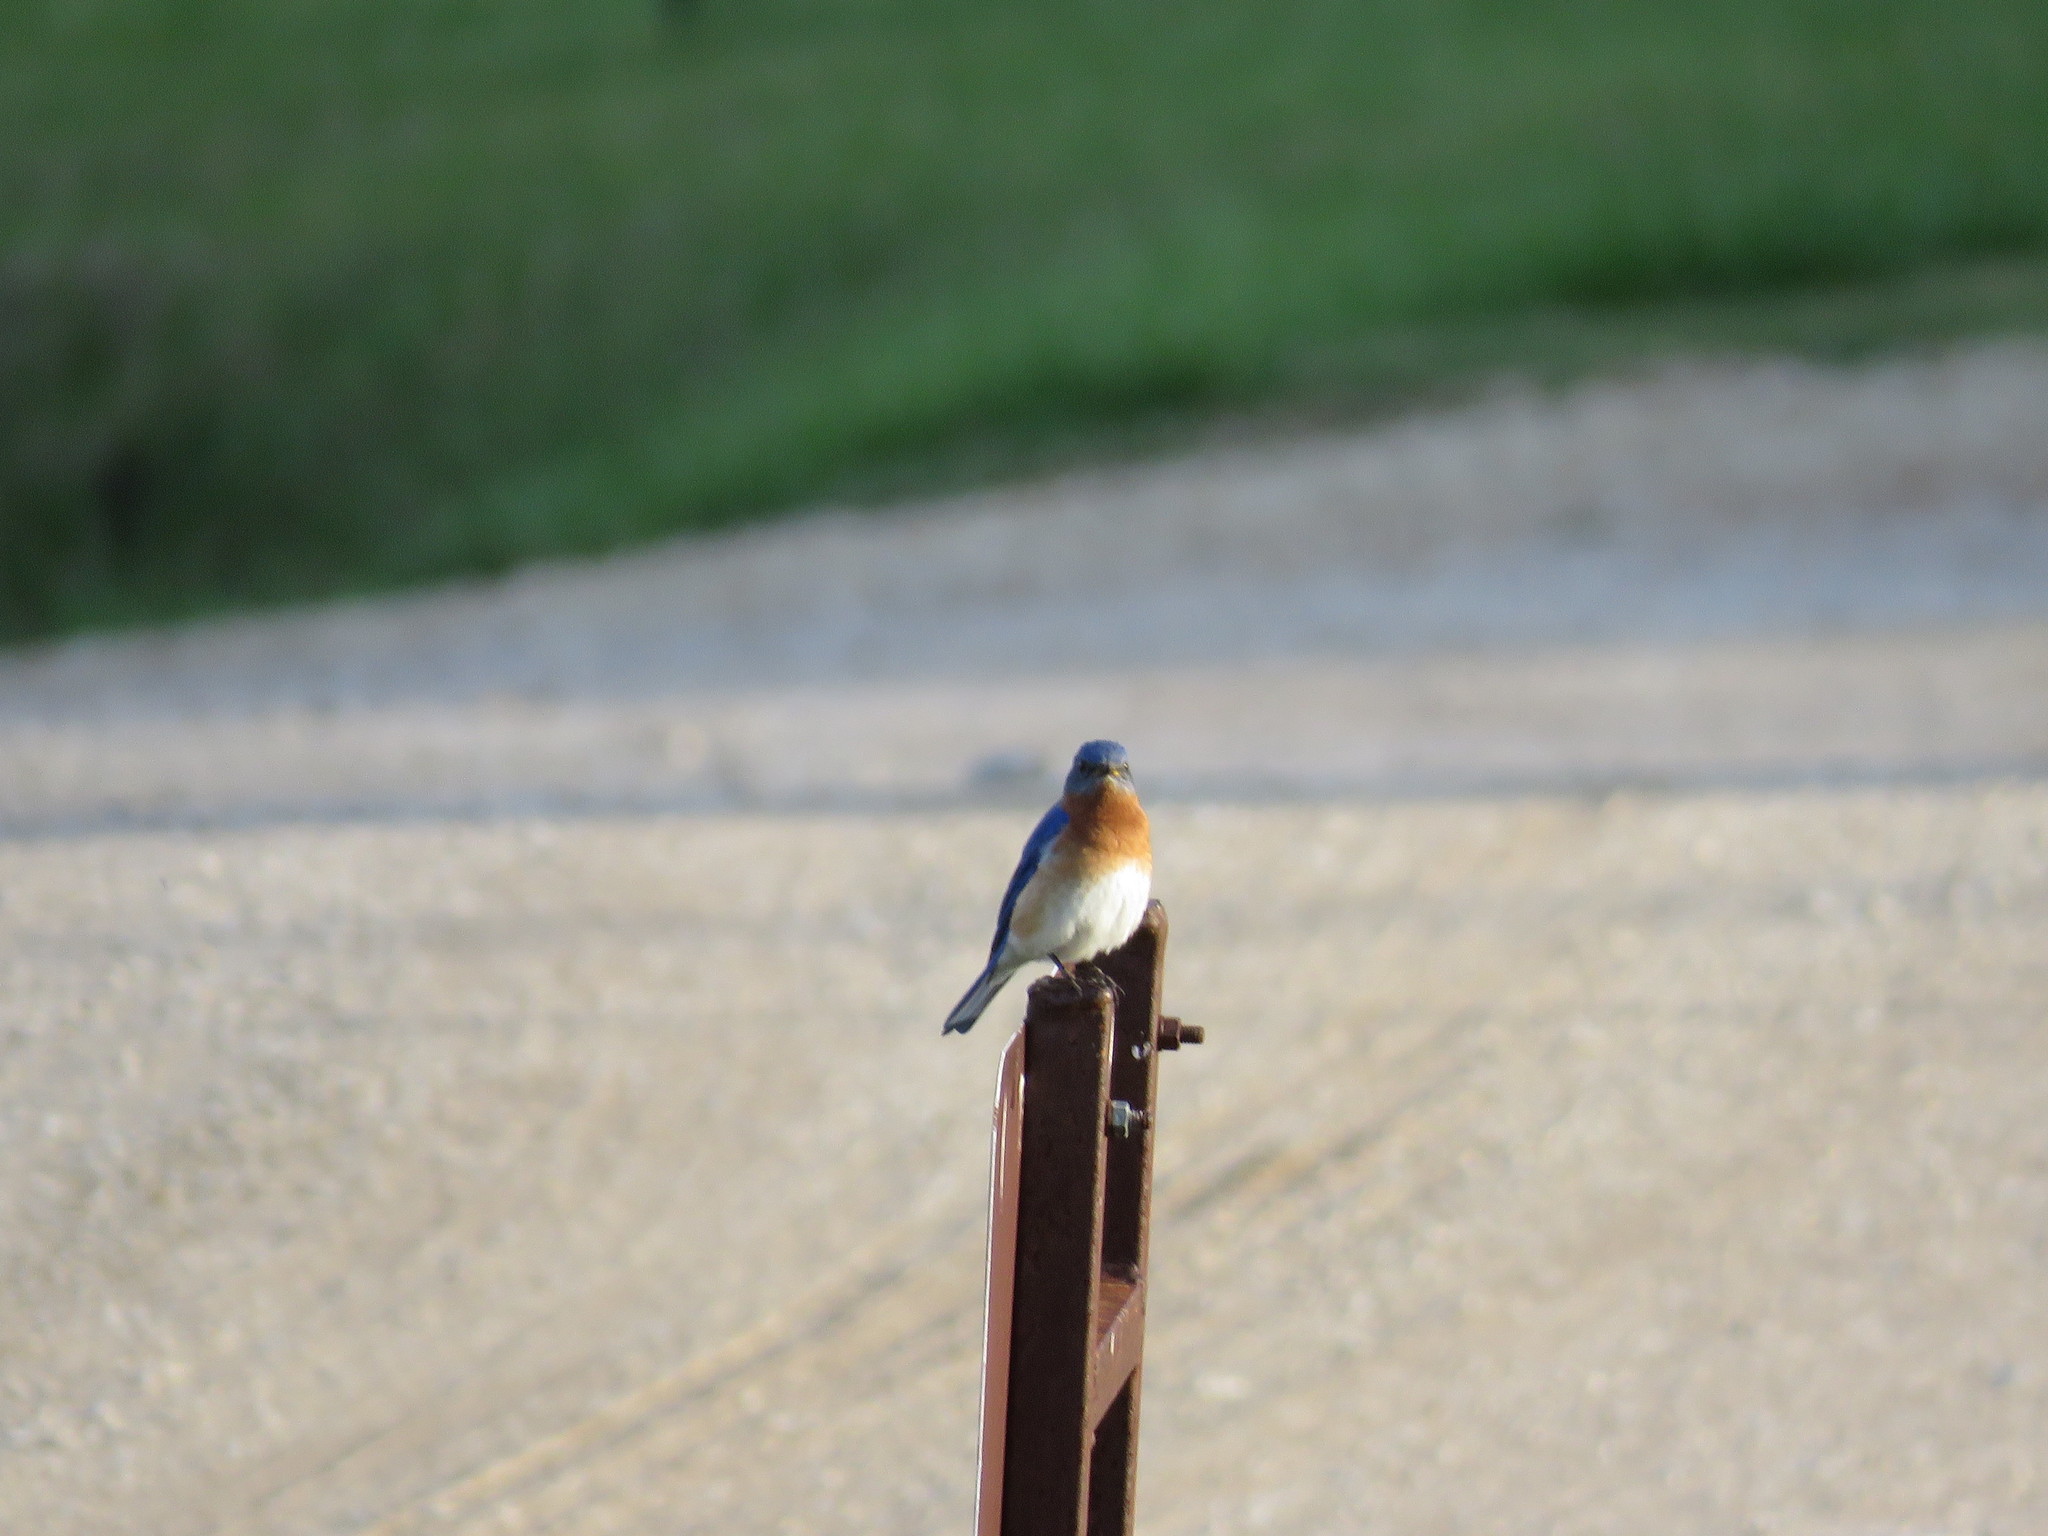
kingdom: Animalia
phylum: Chordata
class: Aves
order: Passeriformes
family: Turdidae
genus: Sialia
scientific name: Sialia sialis
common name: Eastern bluebird
